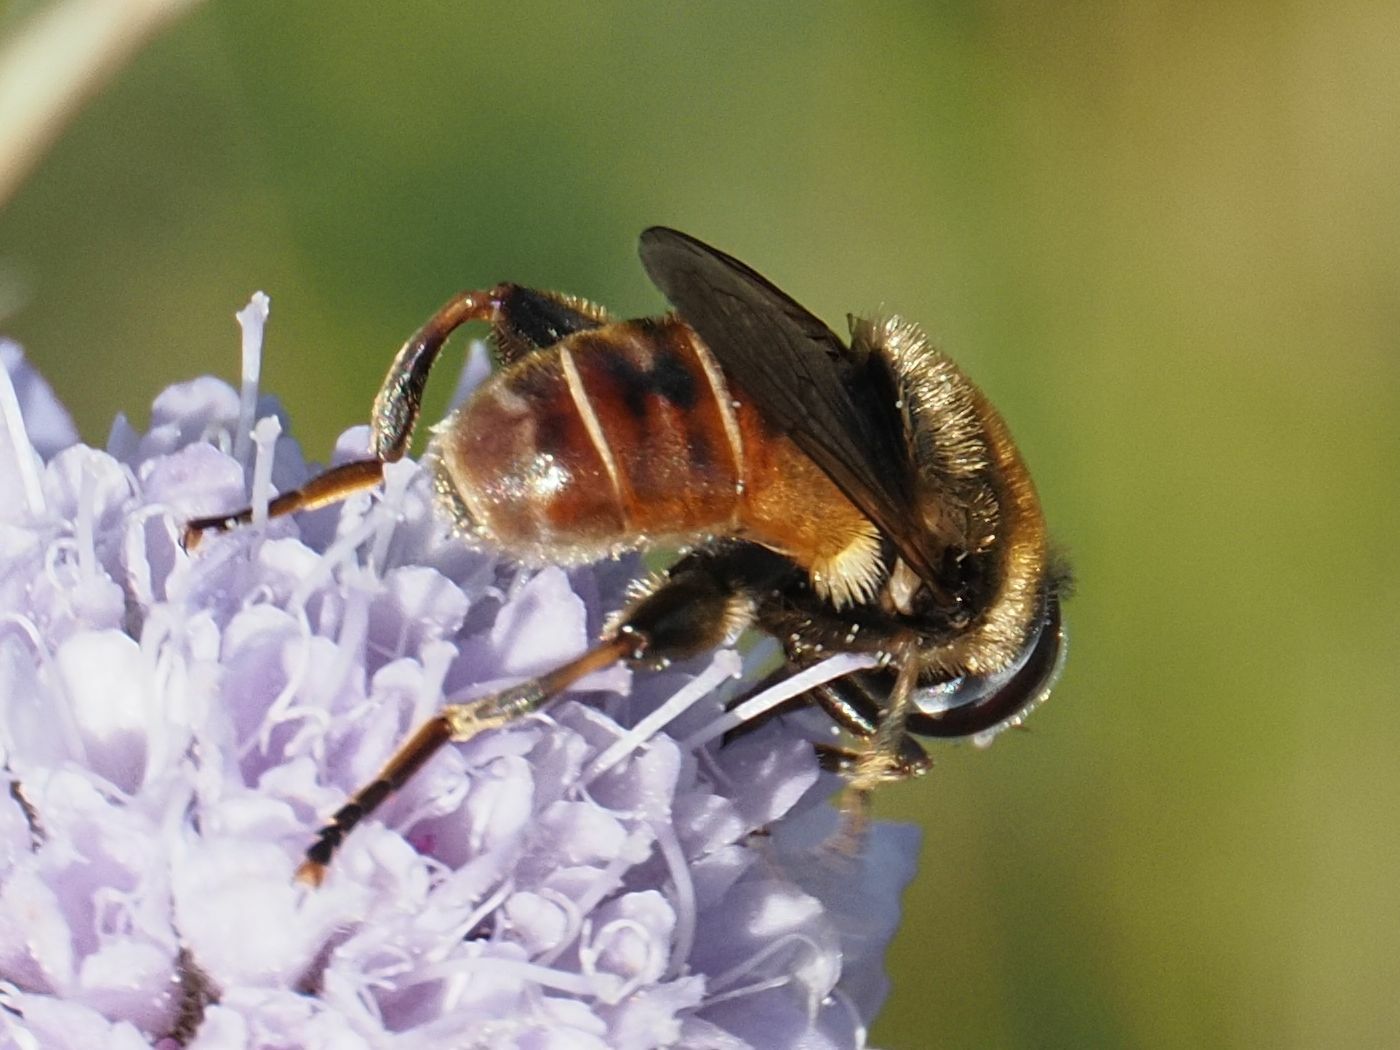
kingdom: Animalia
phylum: Arthropoda
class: Insecta
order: Diptera
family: Syrphidae
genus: Merodon
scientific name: Merodon albifrons
